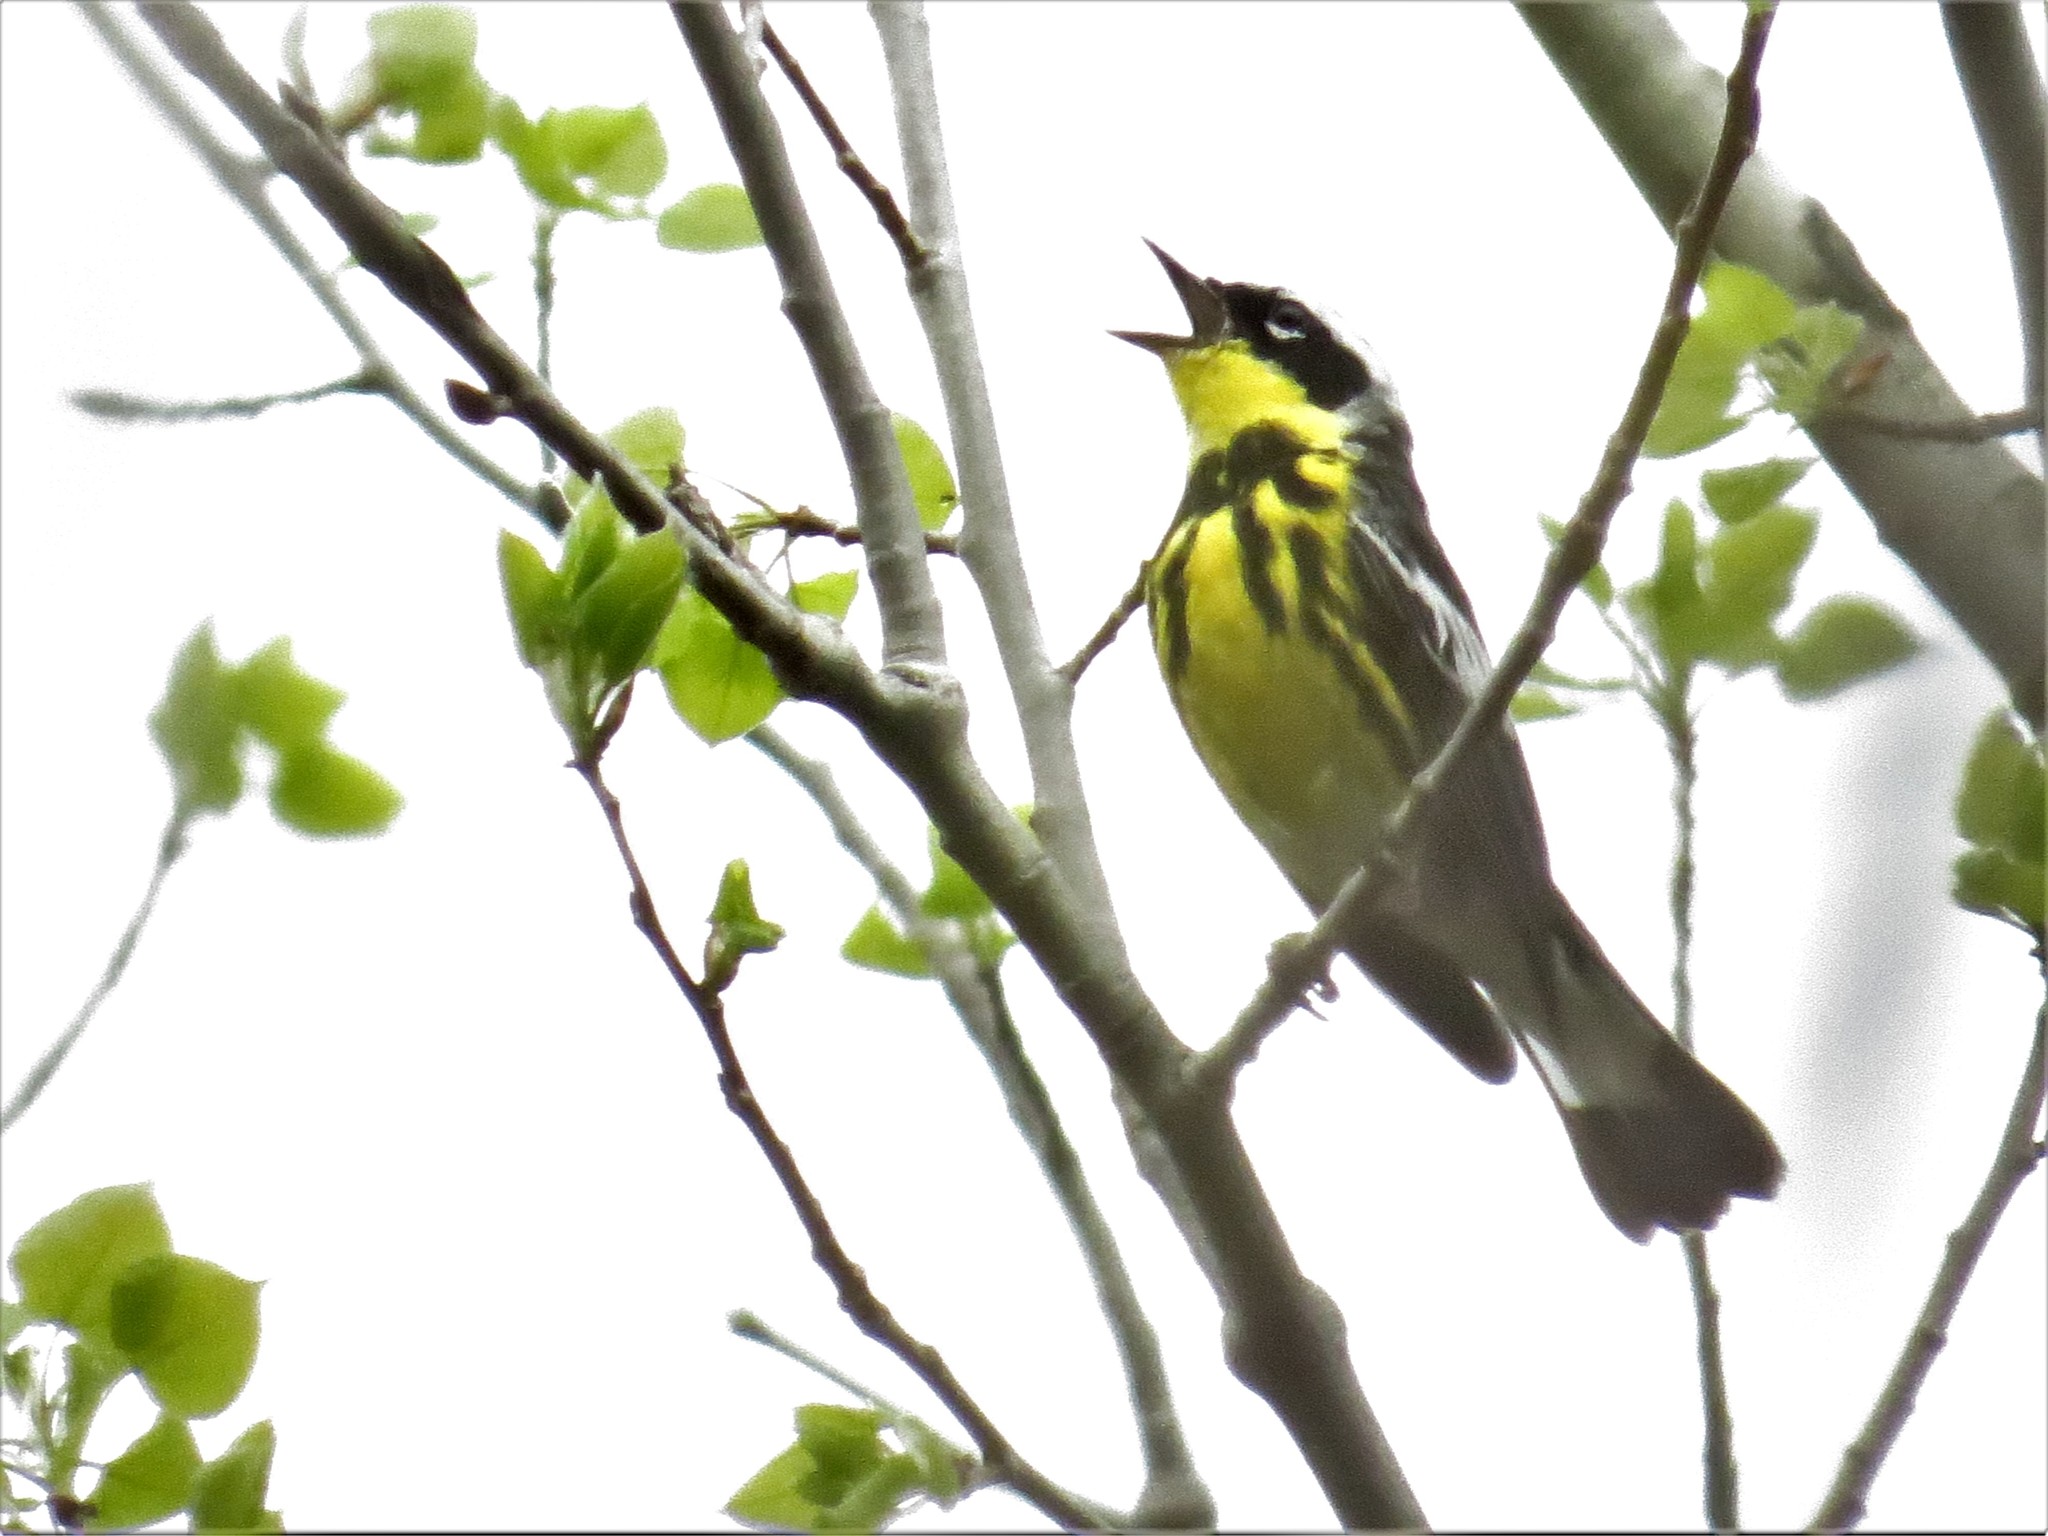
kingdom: Animalia
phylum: Chordata
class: Aves
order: Passeriformes
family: Parulidae
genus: Setophaga
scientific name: Setophaga magnolia
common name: Magnolia warbler
